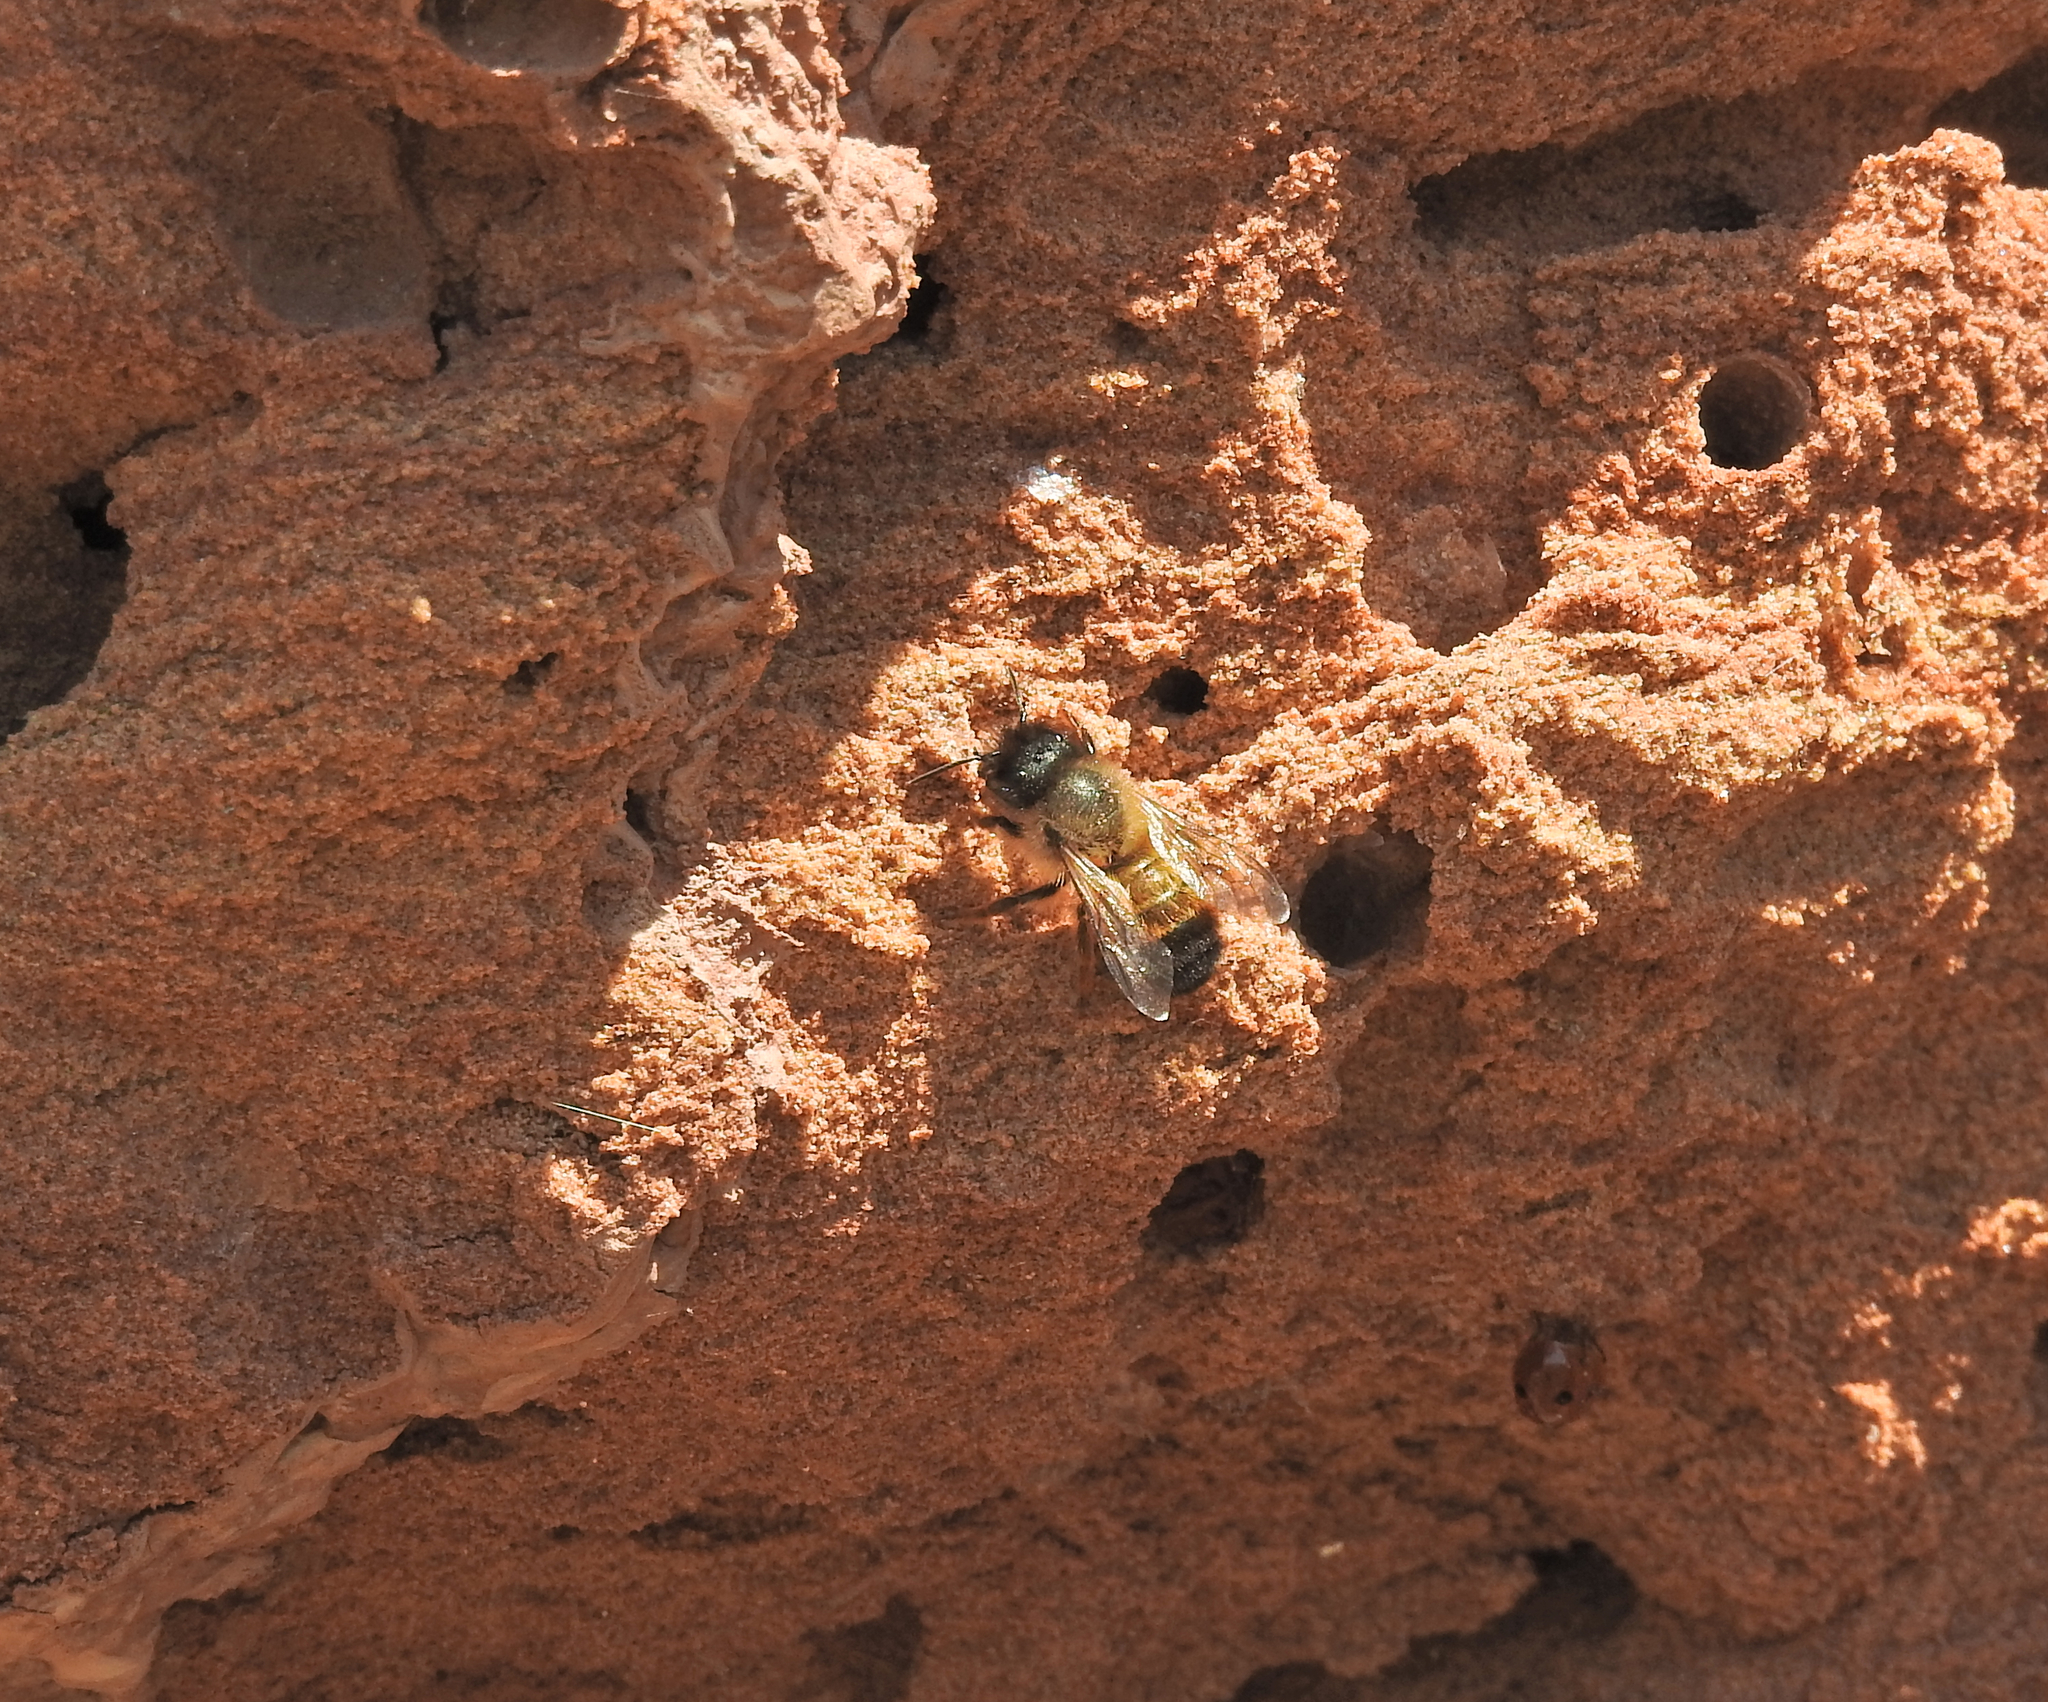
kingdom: Animalia
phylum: Arthropoda
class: Insecta
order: Hymenoptera
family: Megachilidae
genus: Osmia
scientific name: Osmia bicornis
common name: Red mason bee
